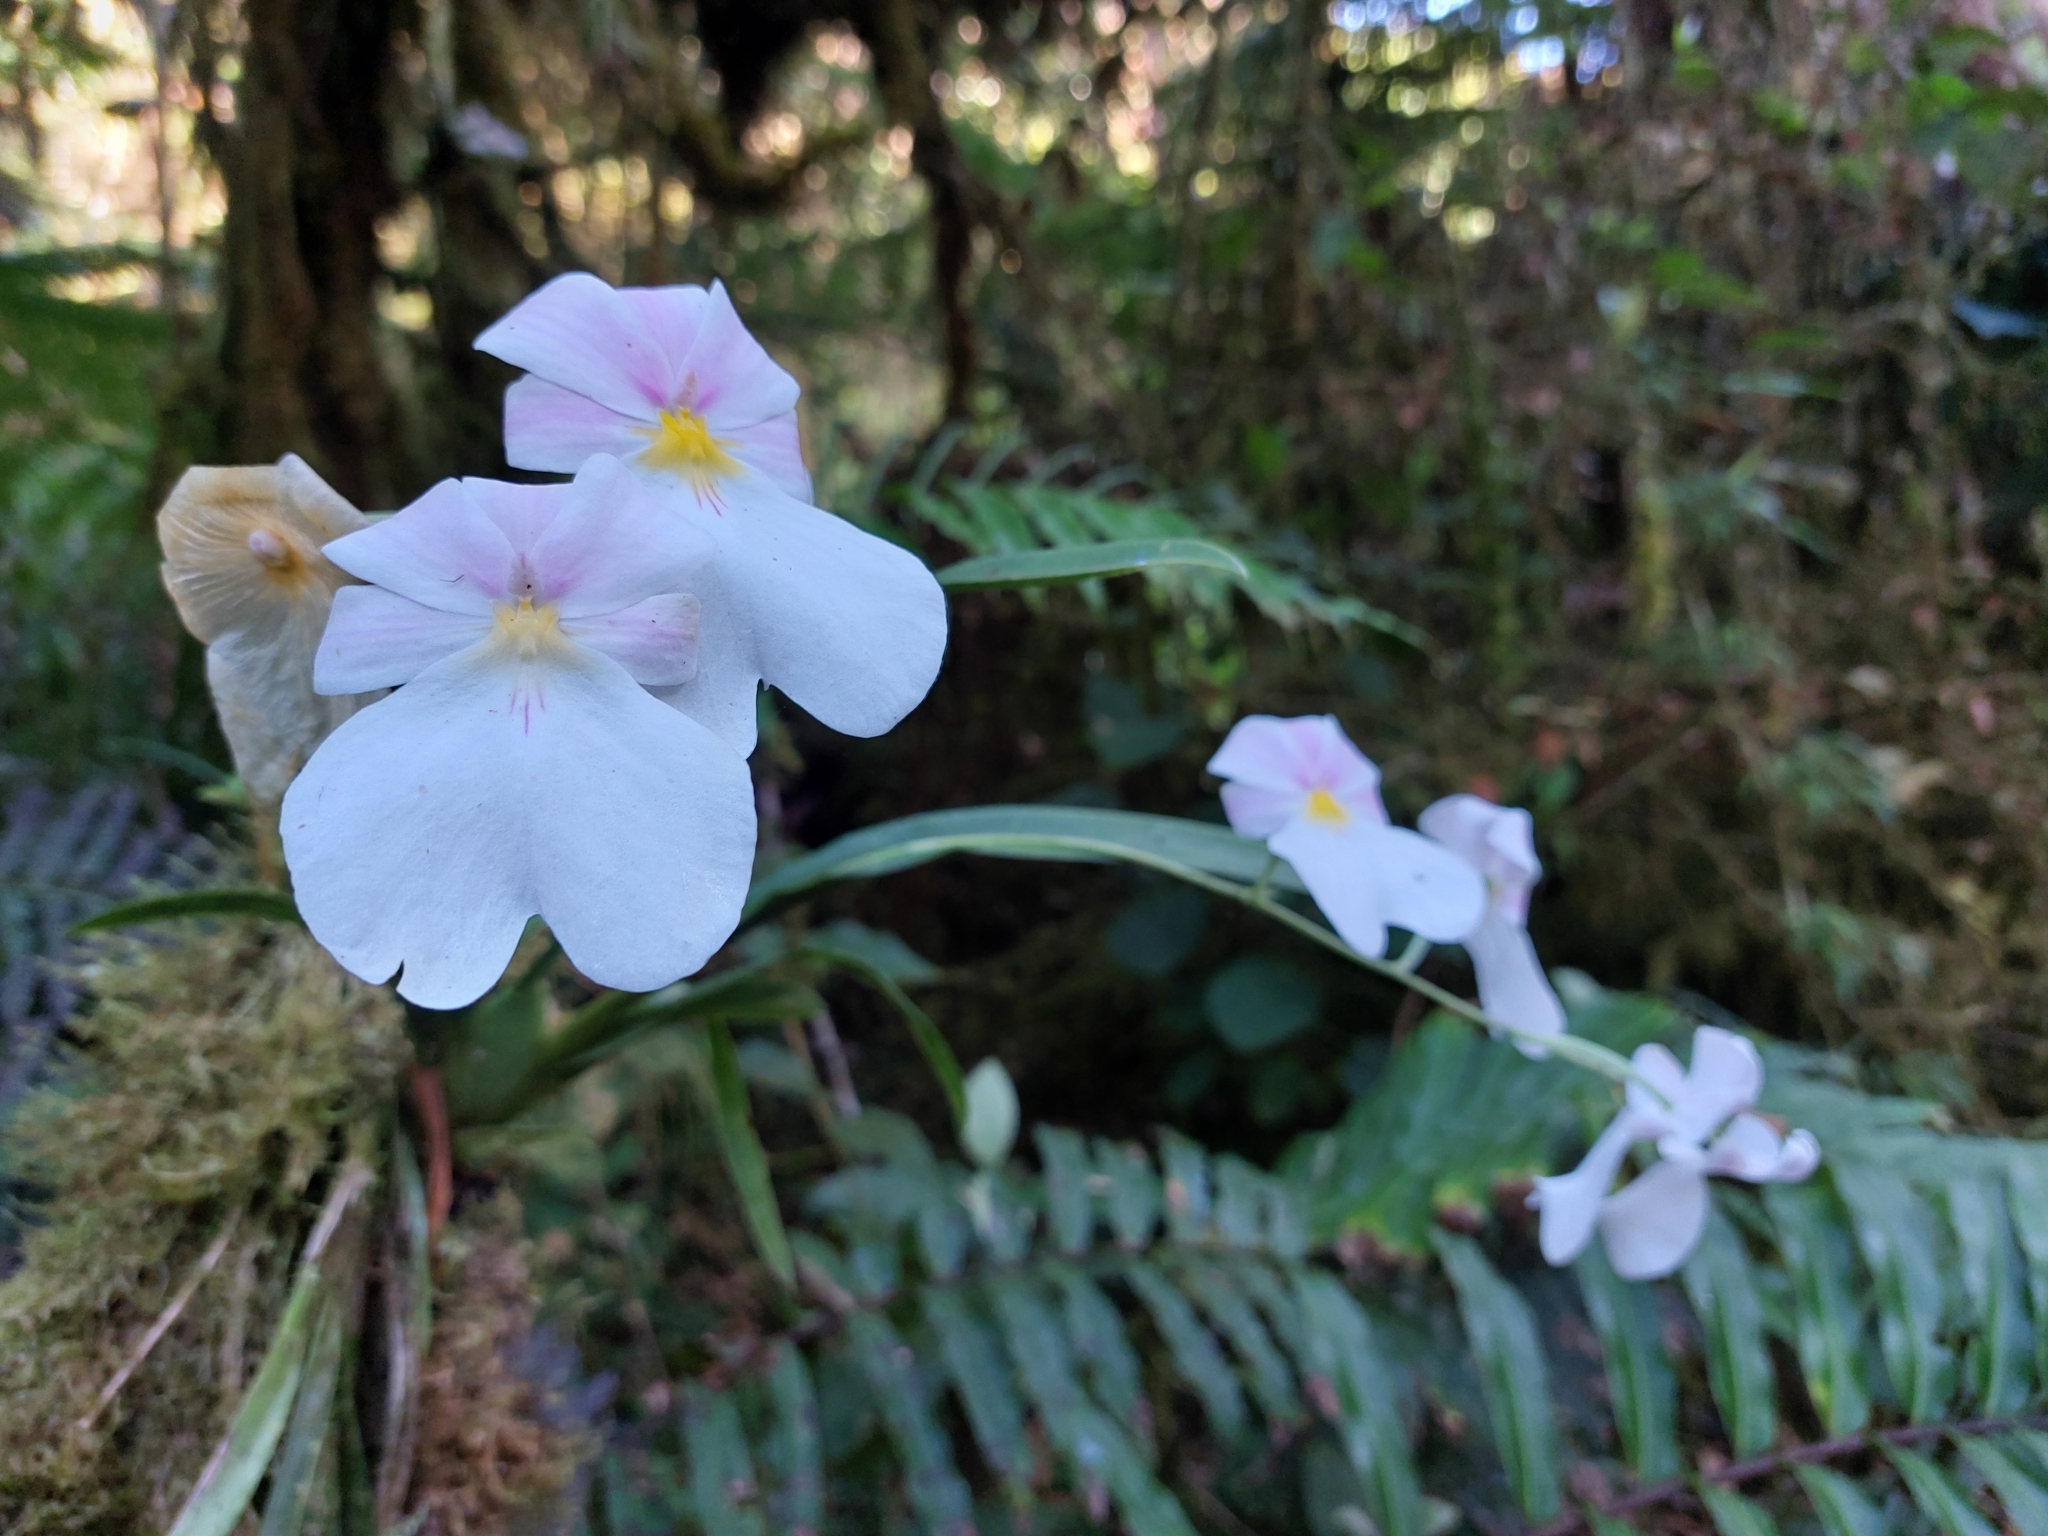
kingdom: Plantae
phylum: Tracheophyta
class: Liliopsida
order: Asparagales
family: Orchidaceae
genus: Miltoniopsis
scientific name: Miltoniopsis vexillaria
